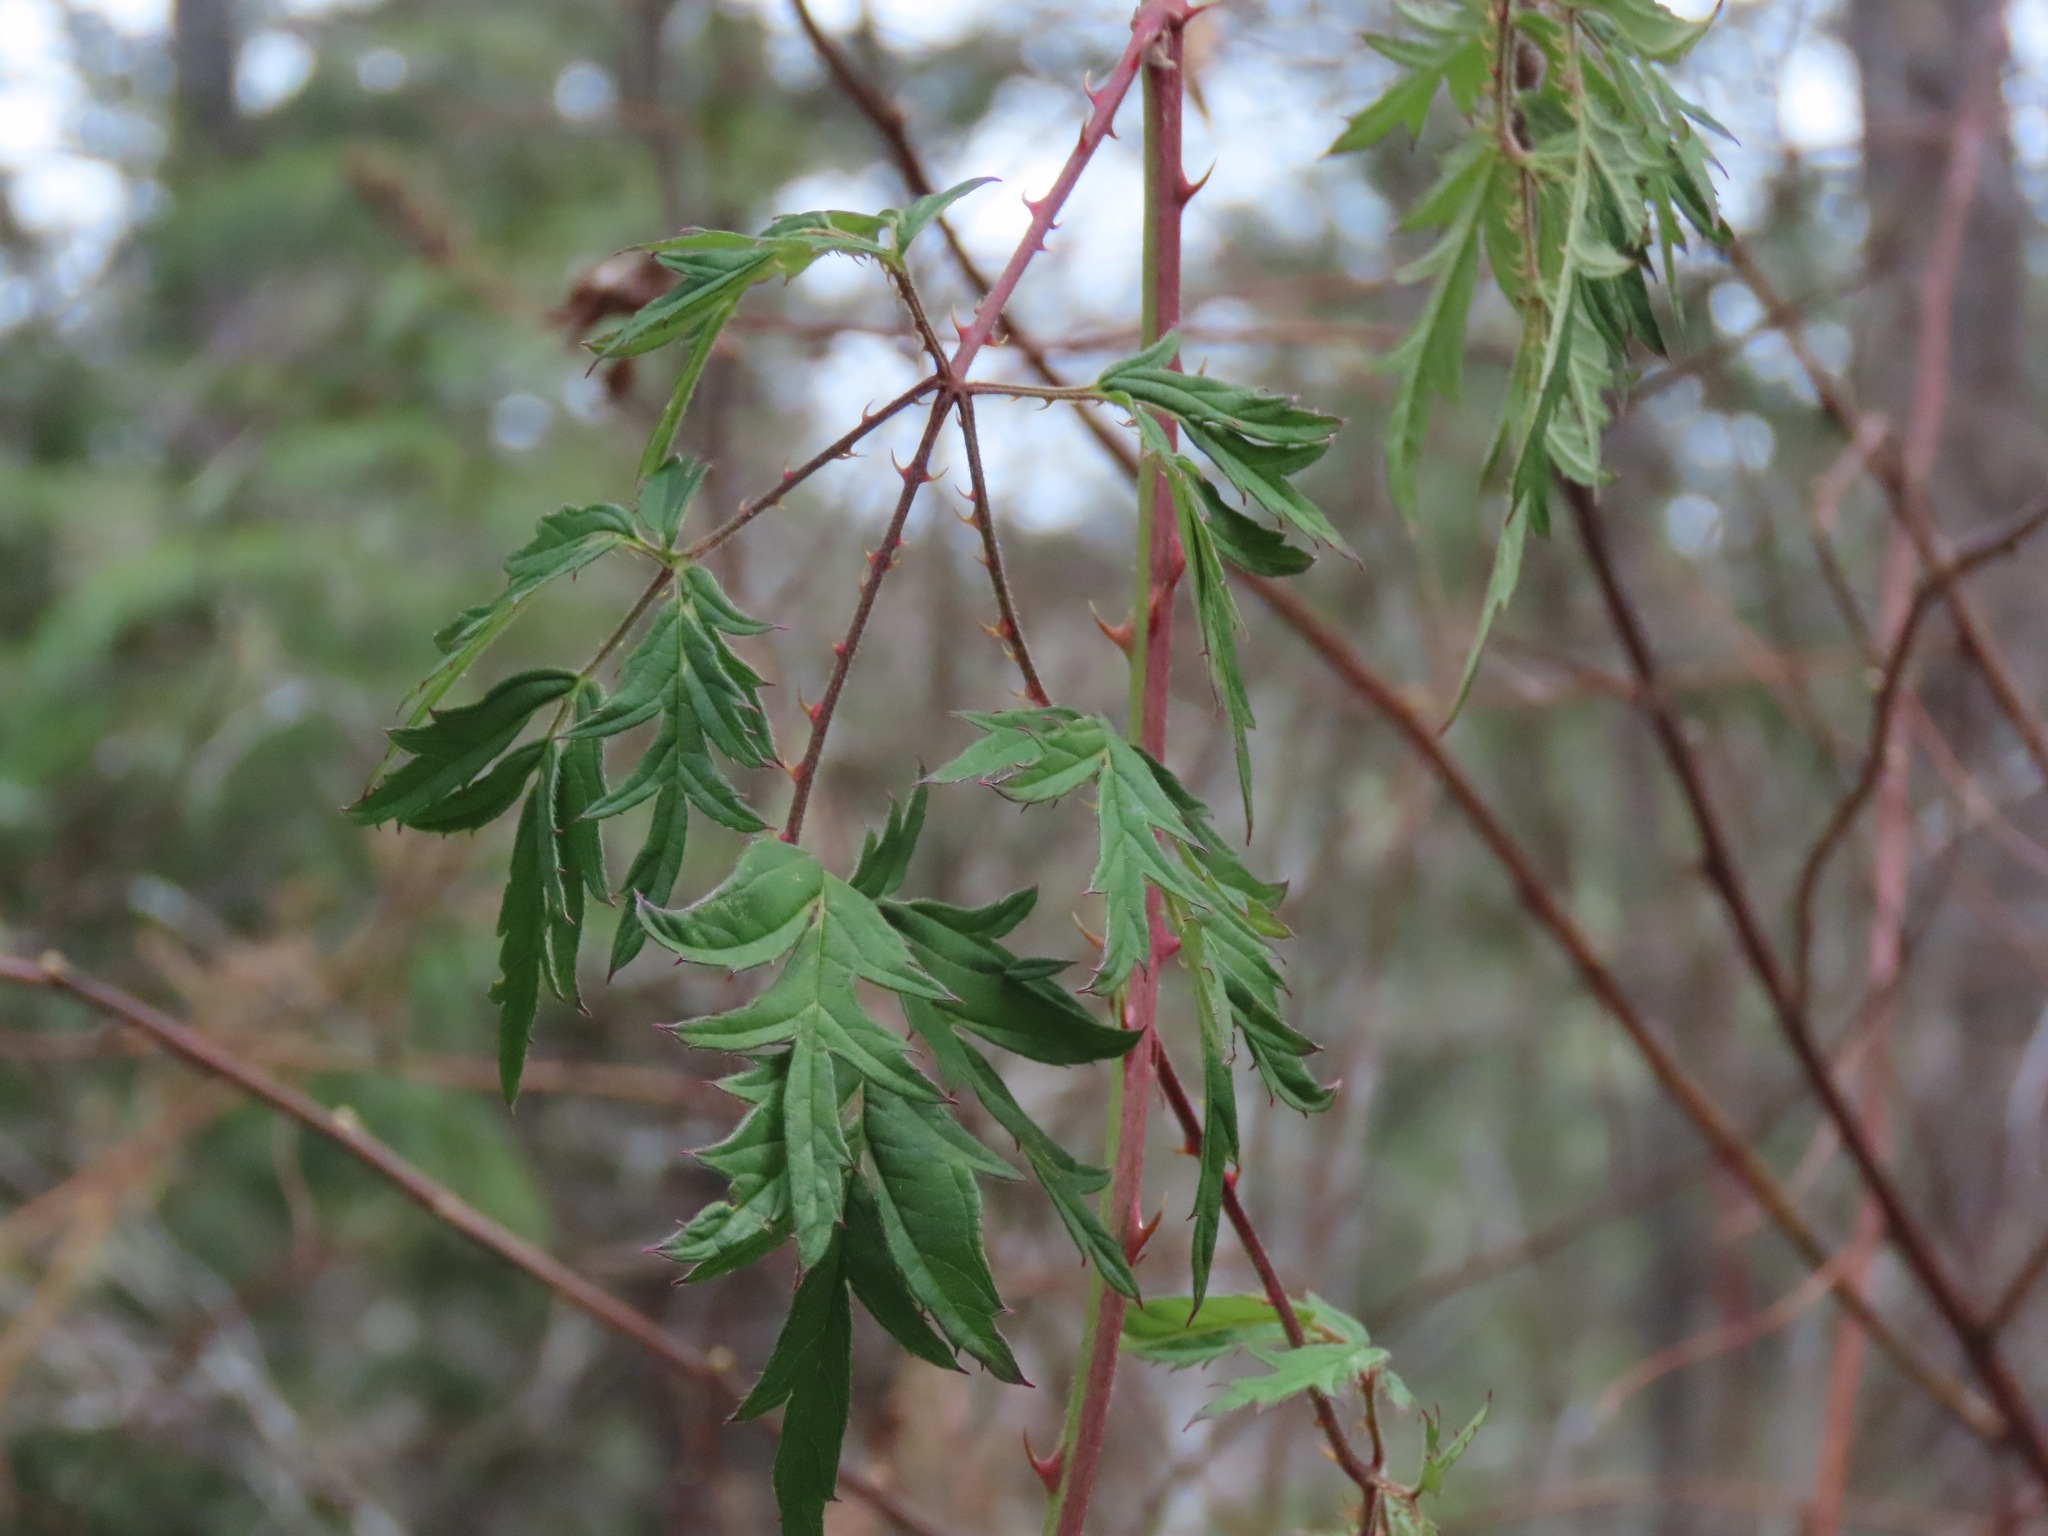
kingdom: Plantae
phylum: Tracheophyta
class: Magnoliopsida
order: Rosales
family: Rosaceae
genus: Rubus
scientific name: Rubus laciniatus
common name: Evergreen blackberry
